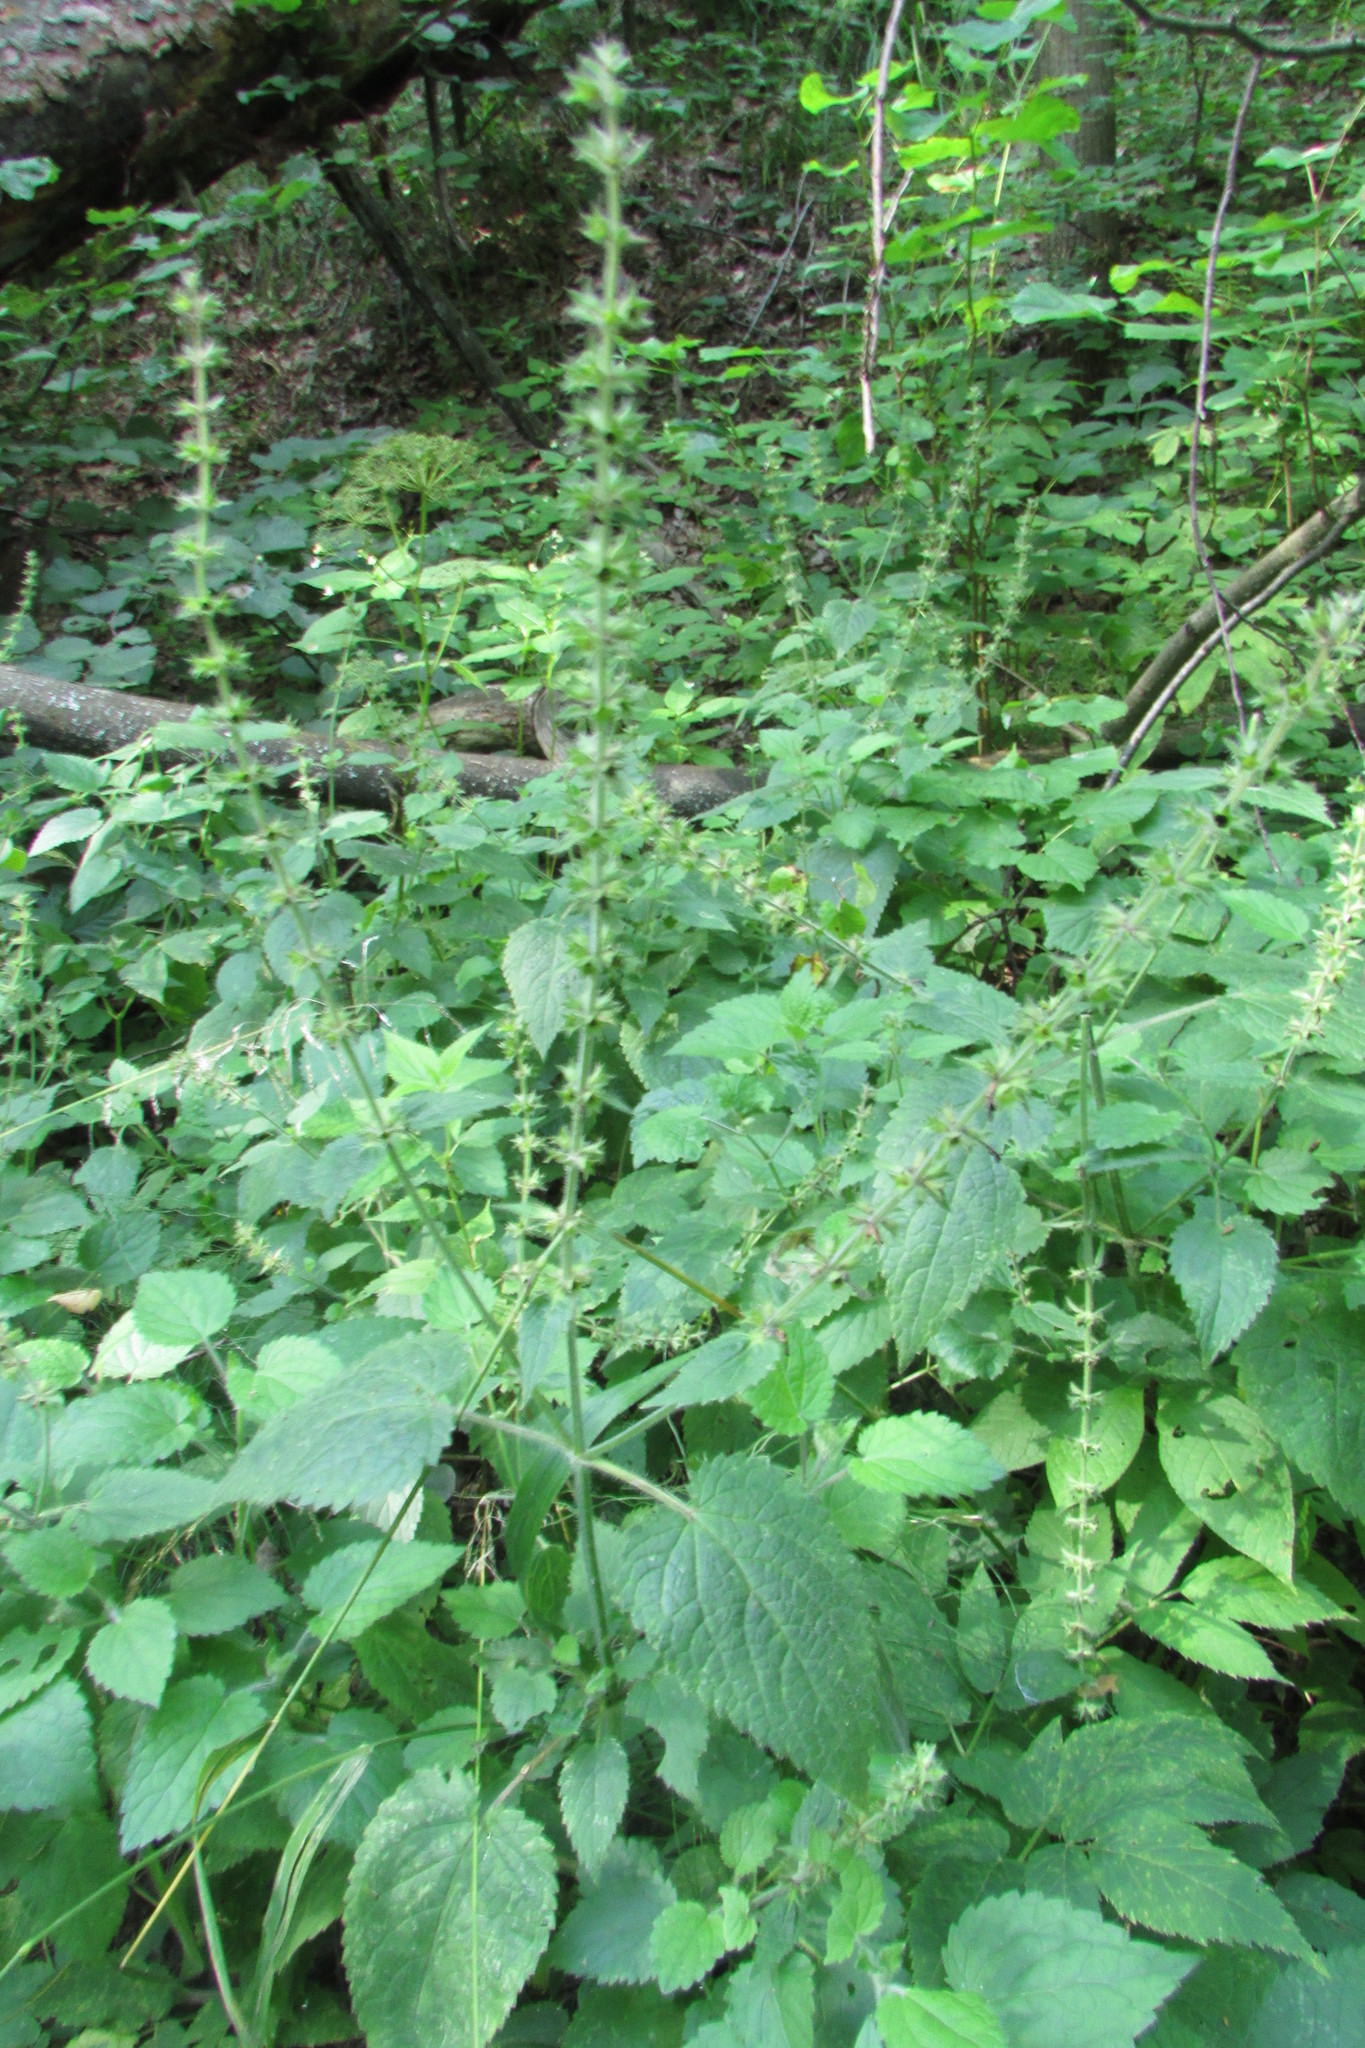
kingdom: Plantae
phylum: Tracheophyta
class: Magnoliopsida
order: Lamiales
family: Lamiaceae
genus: Stachys
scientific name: Stachys sylvatica
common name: Hedge woundwort
